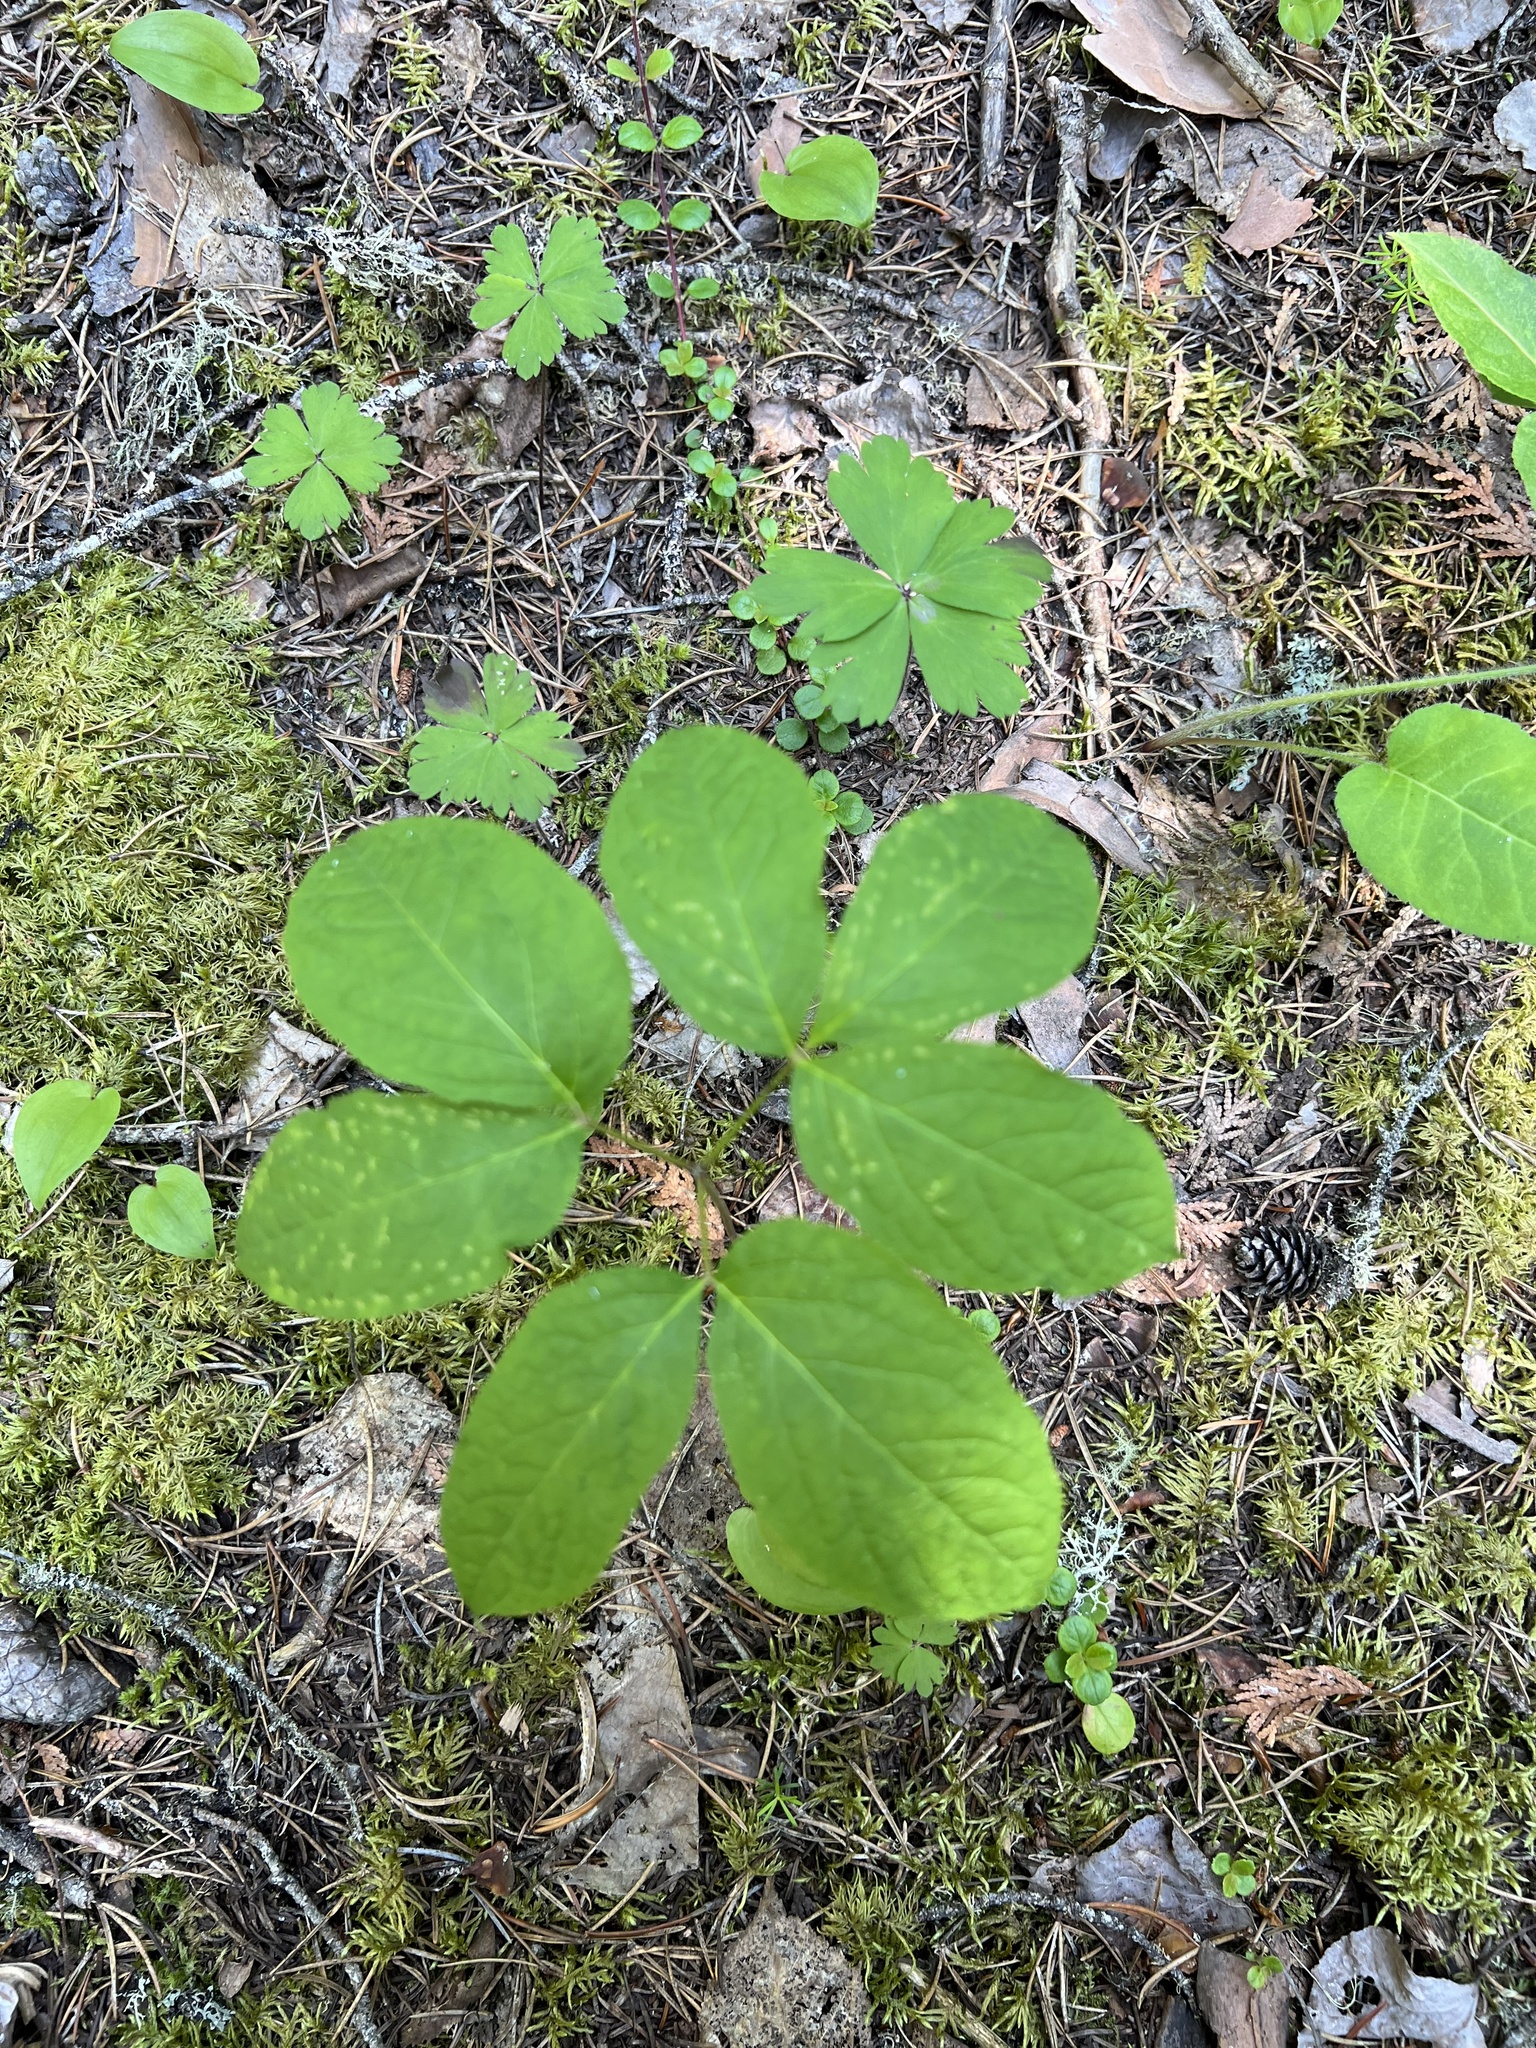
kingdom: Plantae
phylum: Tracheophyta
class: Magnoliopsida
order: Apiales
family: Araliaceae
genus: Aralia
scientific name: Aralia nudicaulis
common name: Wild sarsaparilla
